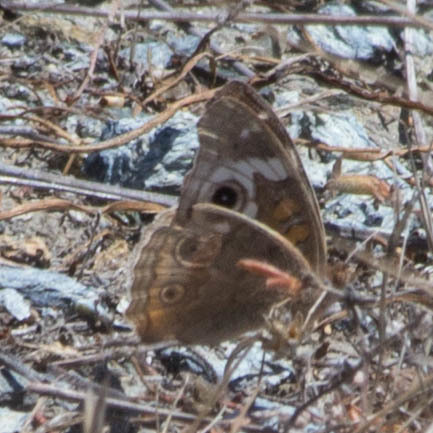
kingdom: Animalia
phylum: Arthropoda
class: Insecta
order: Lepidoptera
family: Nymphalidae
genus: Junonia
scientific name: Junonia grisea
